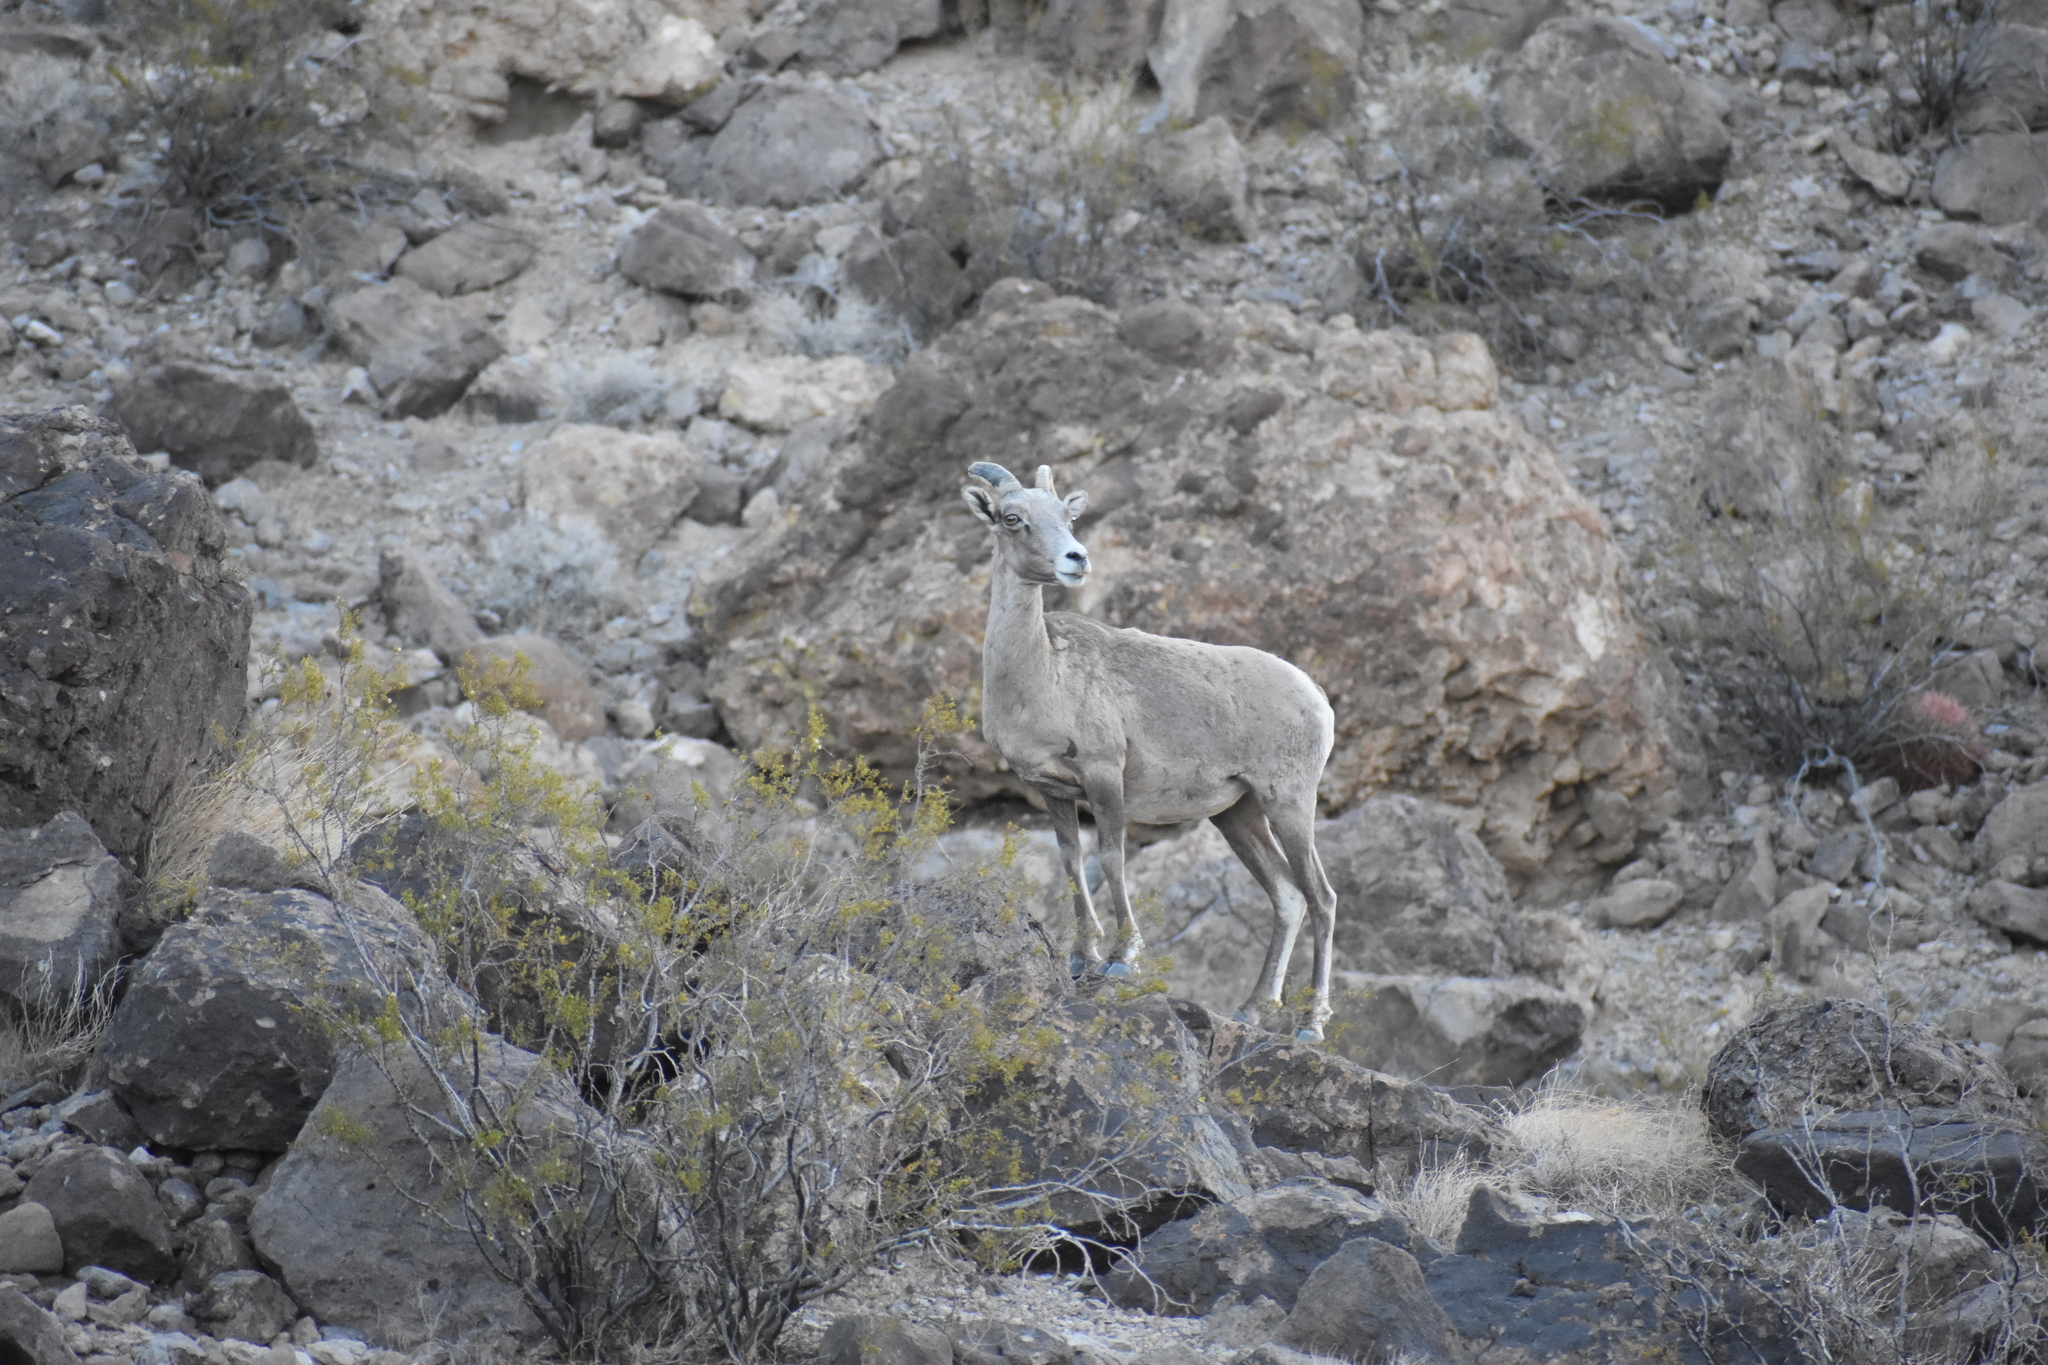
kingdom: Animalia
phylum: Chordata
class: Mammalia
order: Artiodactyla
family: Bovidae
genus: Ovis
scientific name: Ovis canadensis
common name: Bighorn sheep
